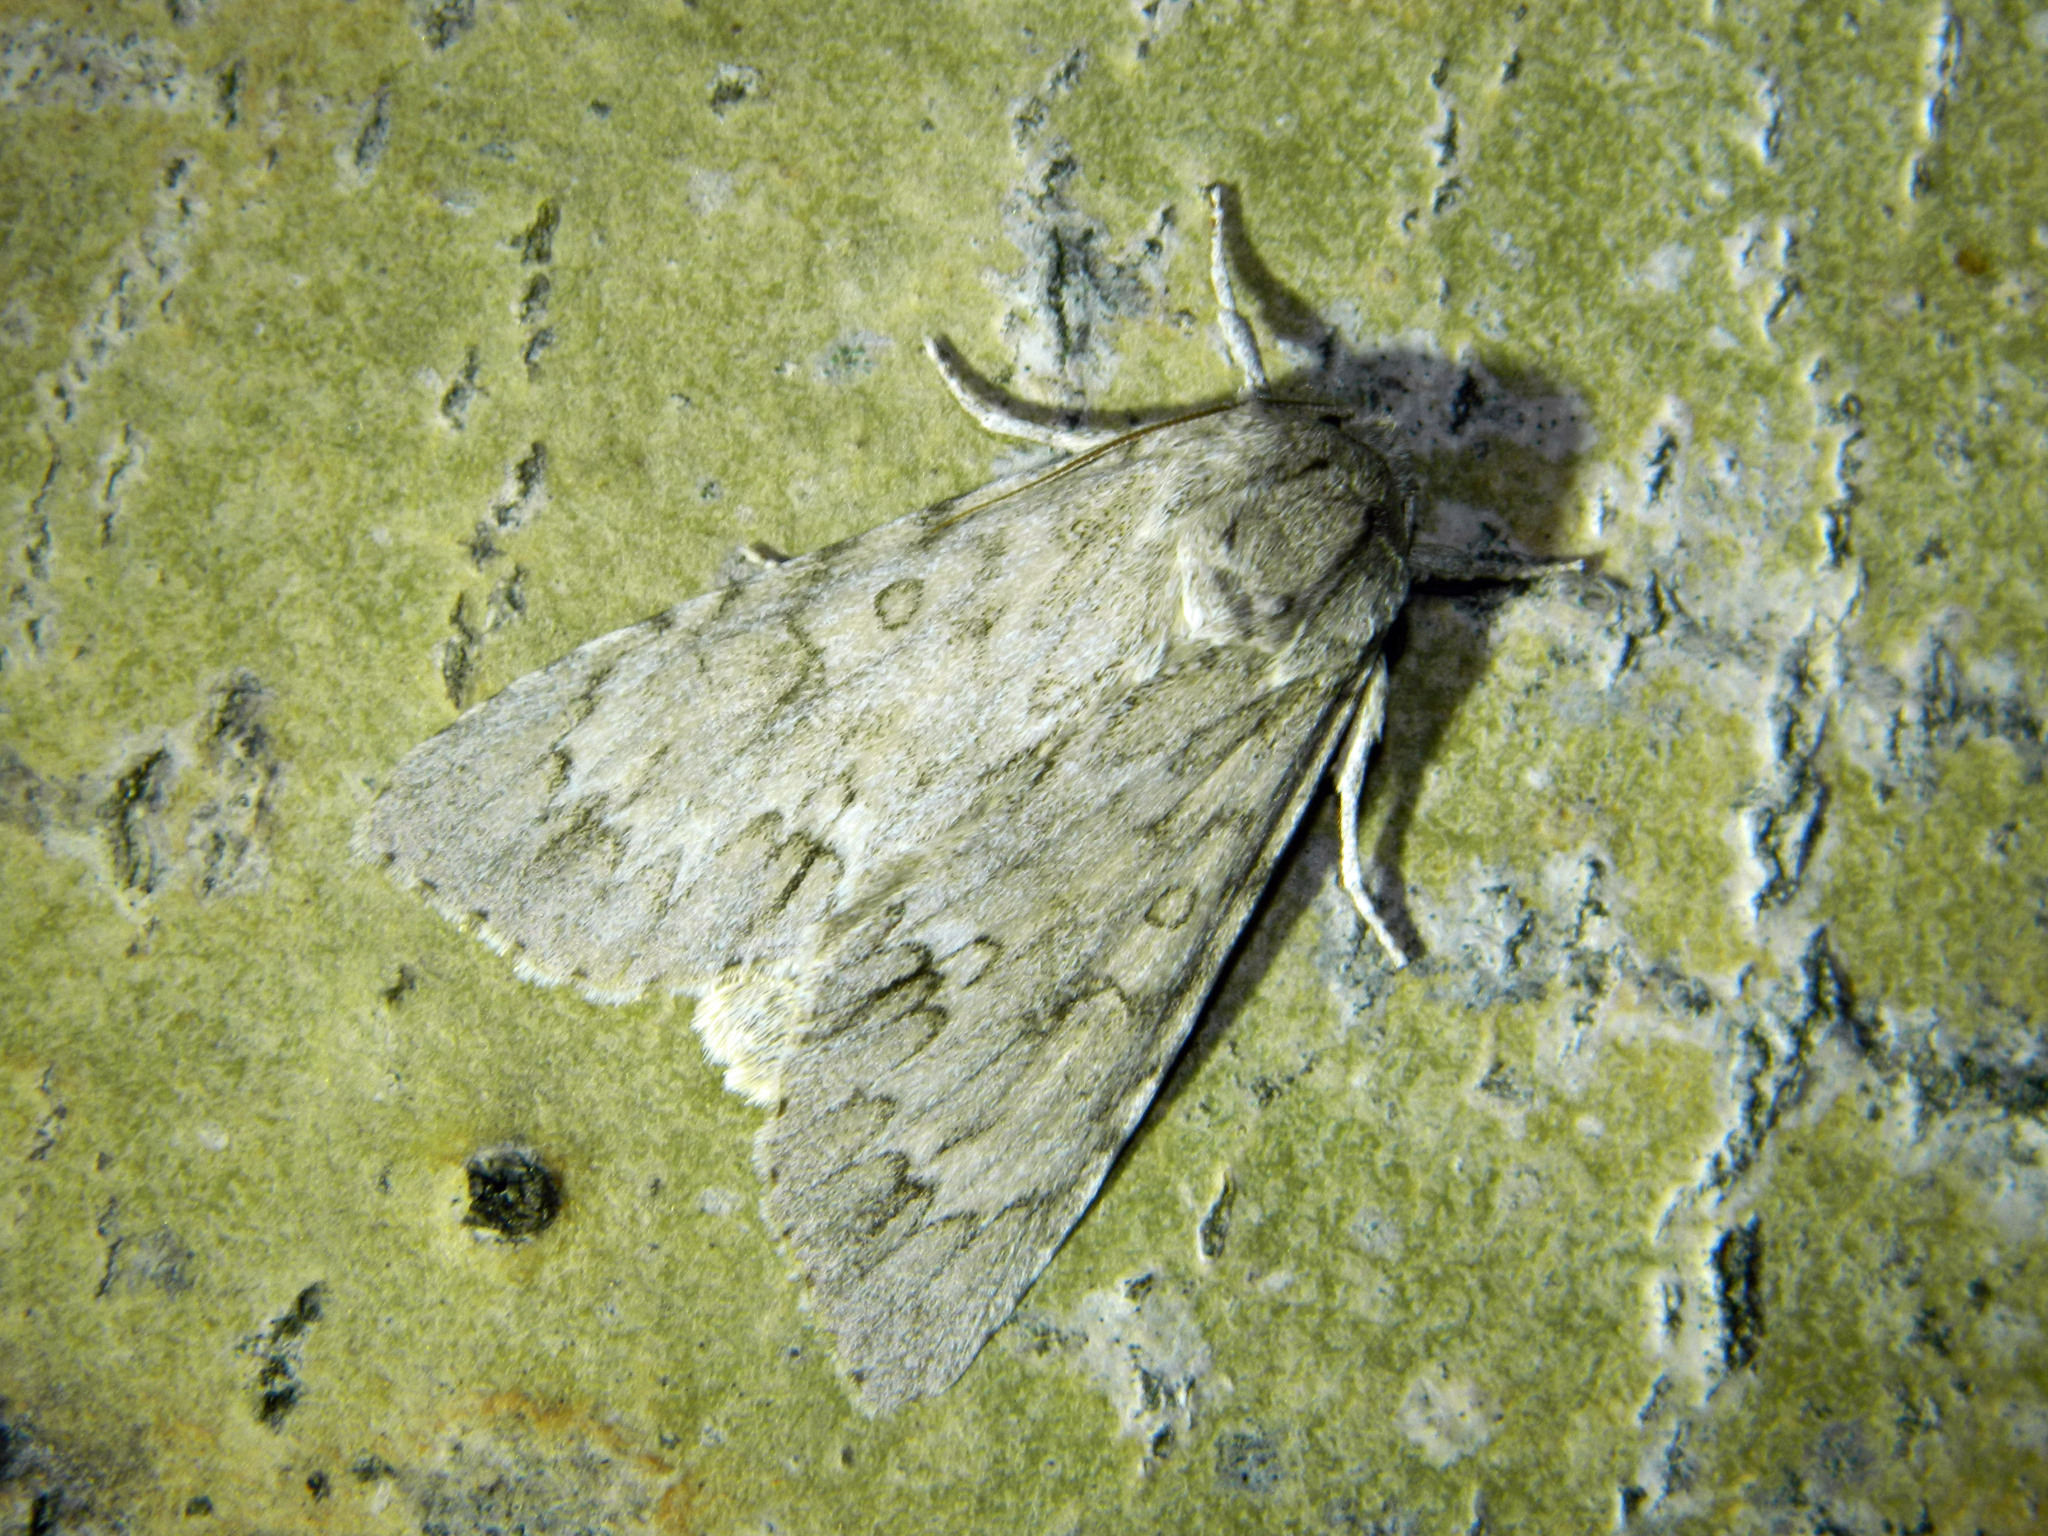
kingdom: Animalia
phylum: Arthropoda
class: Insecta
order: Lepidoptera
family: Noctuidae
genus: Acronicta
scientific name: Acronicta americana
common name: American dagger
